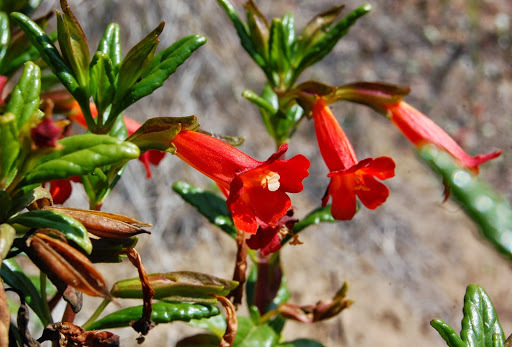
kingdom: Plantae
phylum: Tracheophyta
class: Magnoliopsida
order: Lamiales
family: Phrymaceae
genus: Diplacus
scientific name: Diplacus parviflorus
